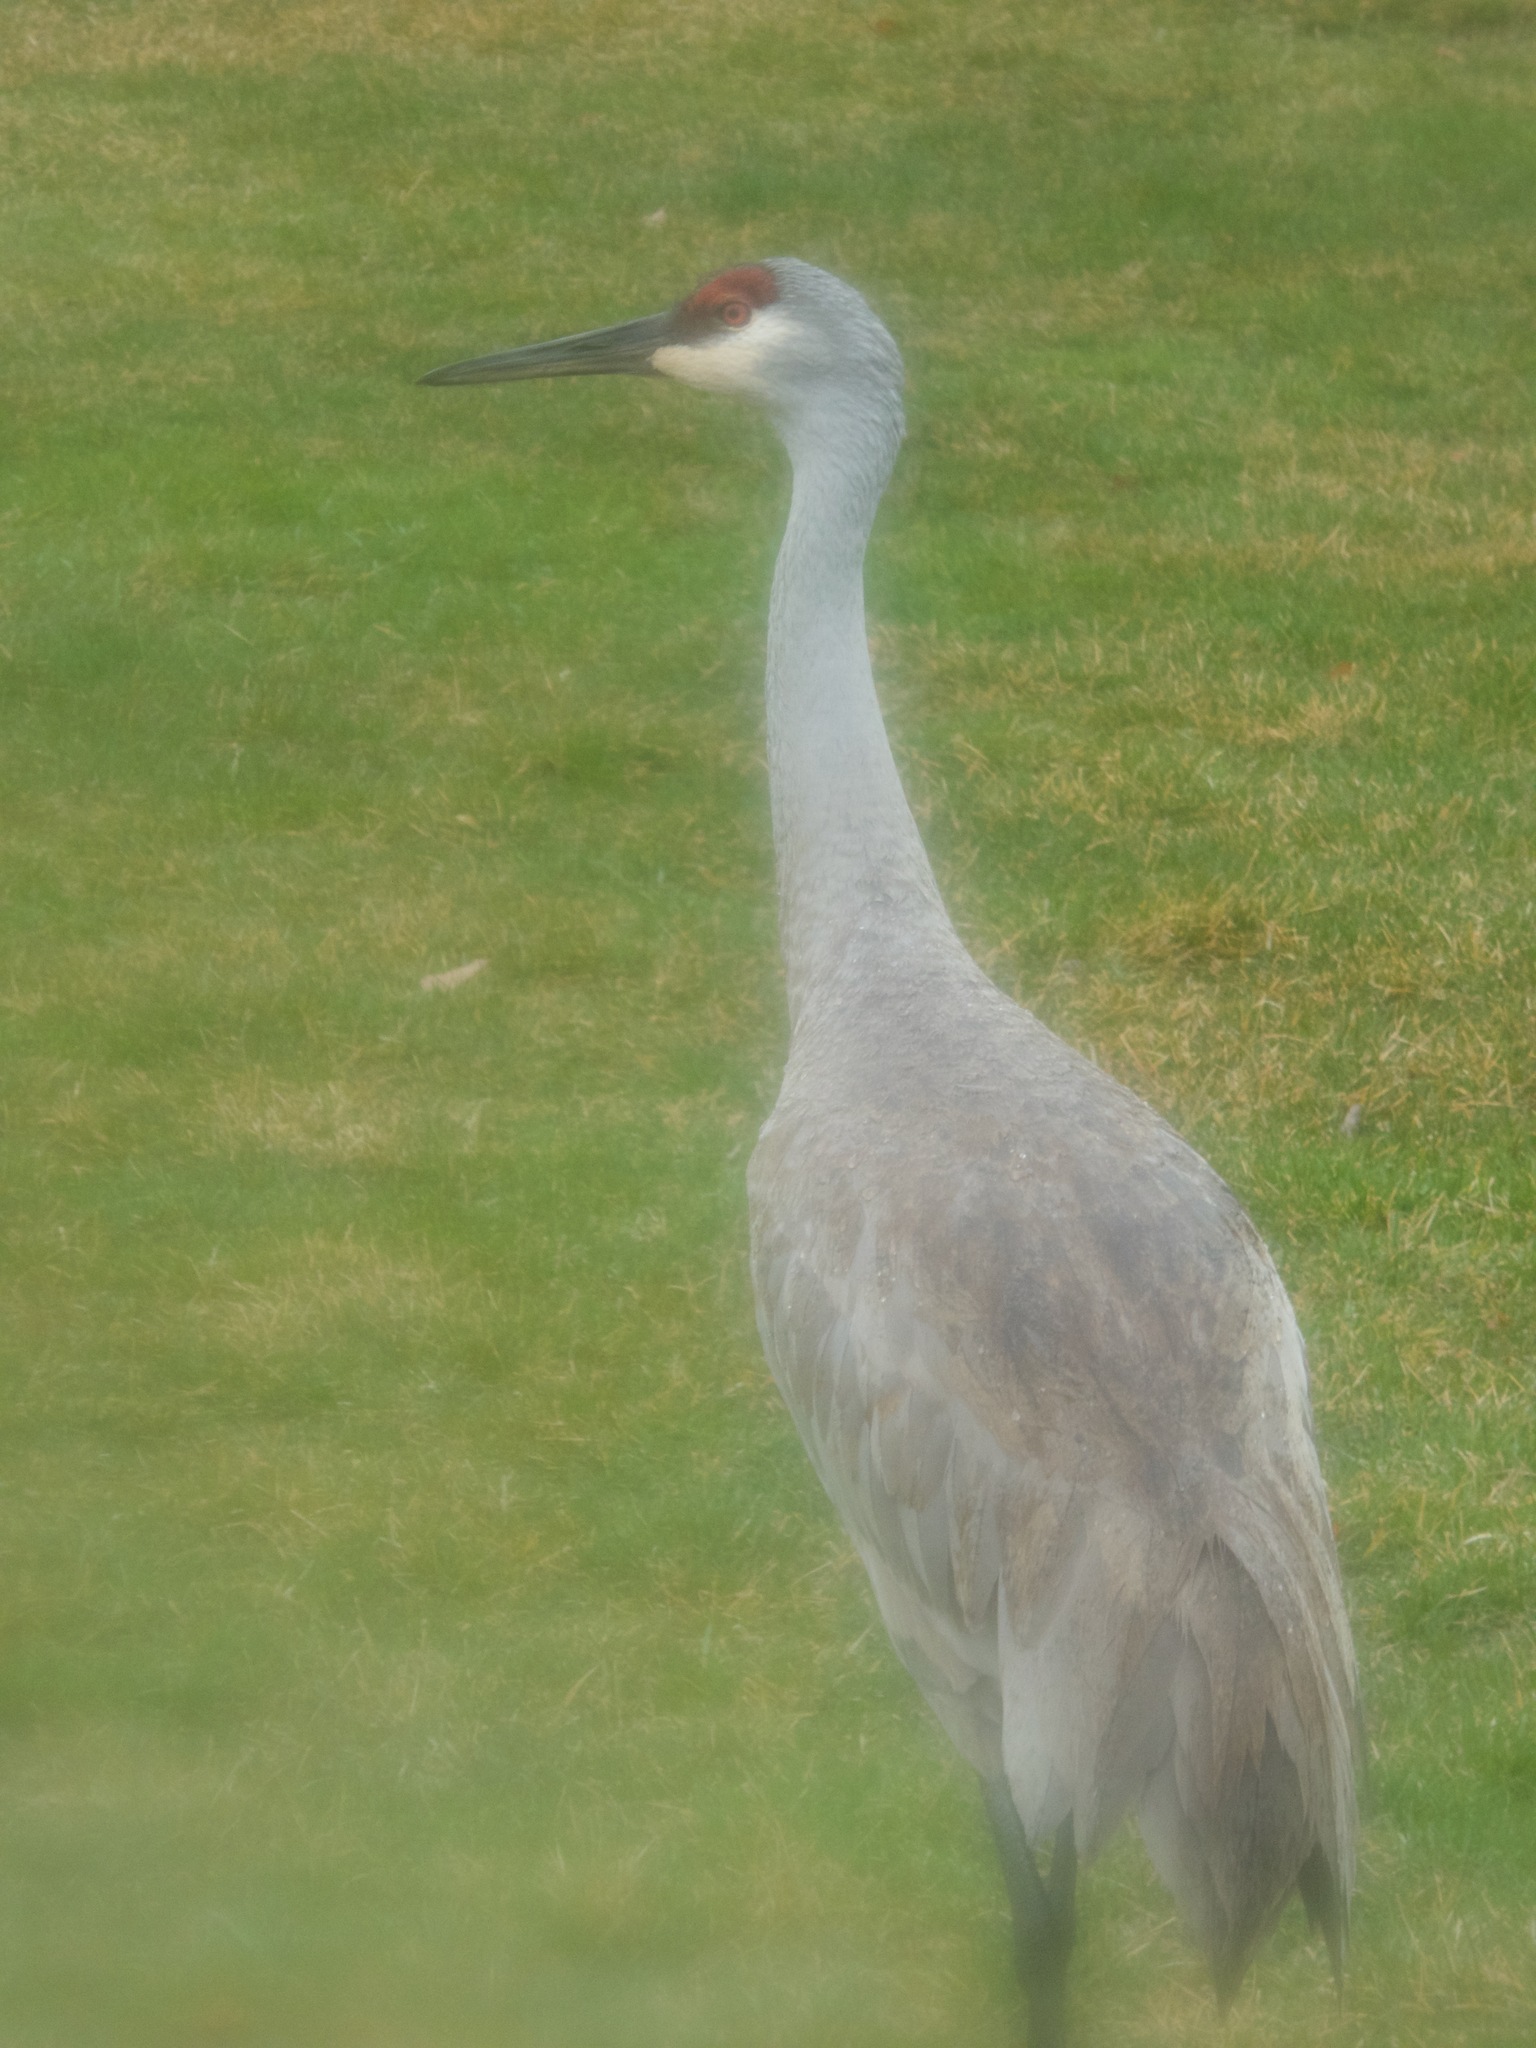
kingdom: Animalia
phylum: Chordata
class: Aves
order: Gruiformes
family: Gruidae
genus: Grus
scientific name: Grus canadensis
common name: Sandhill crane
